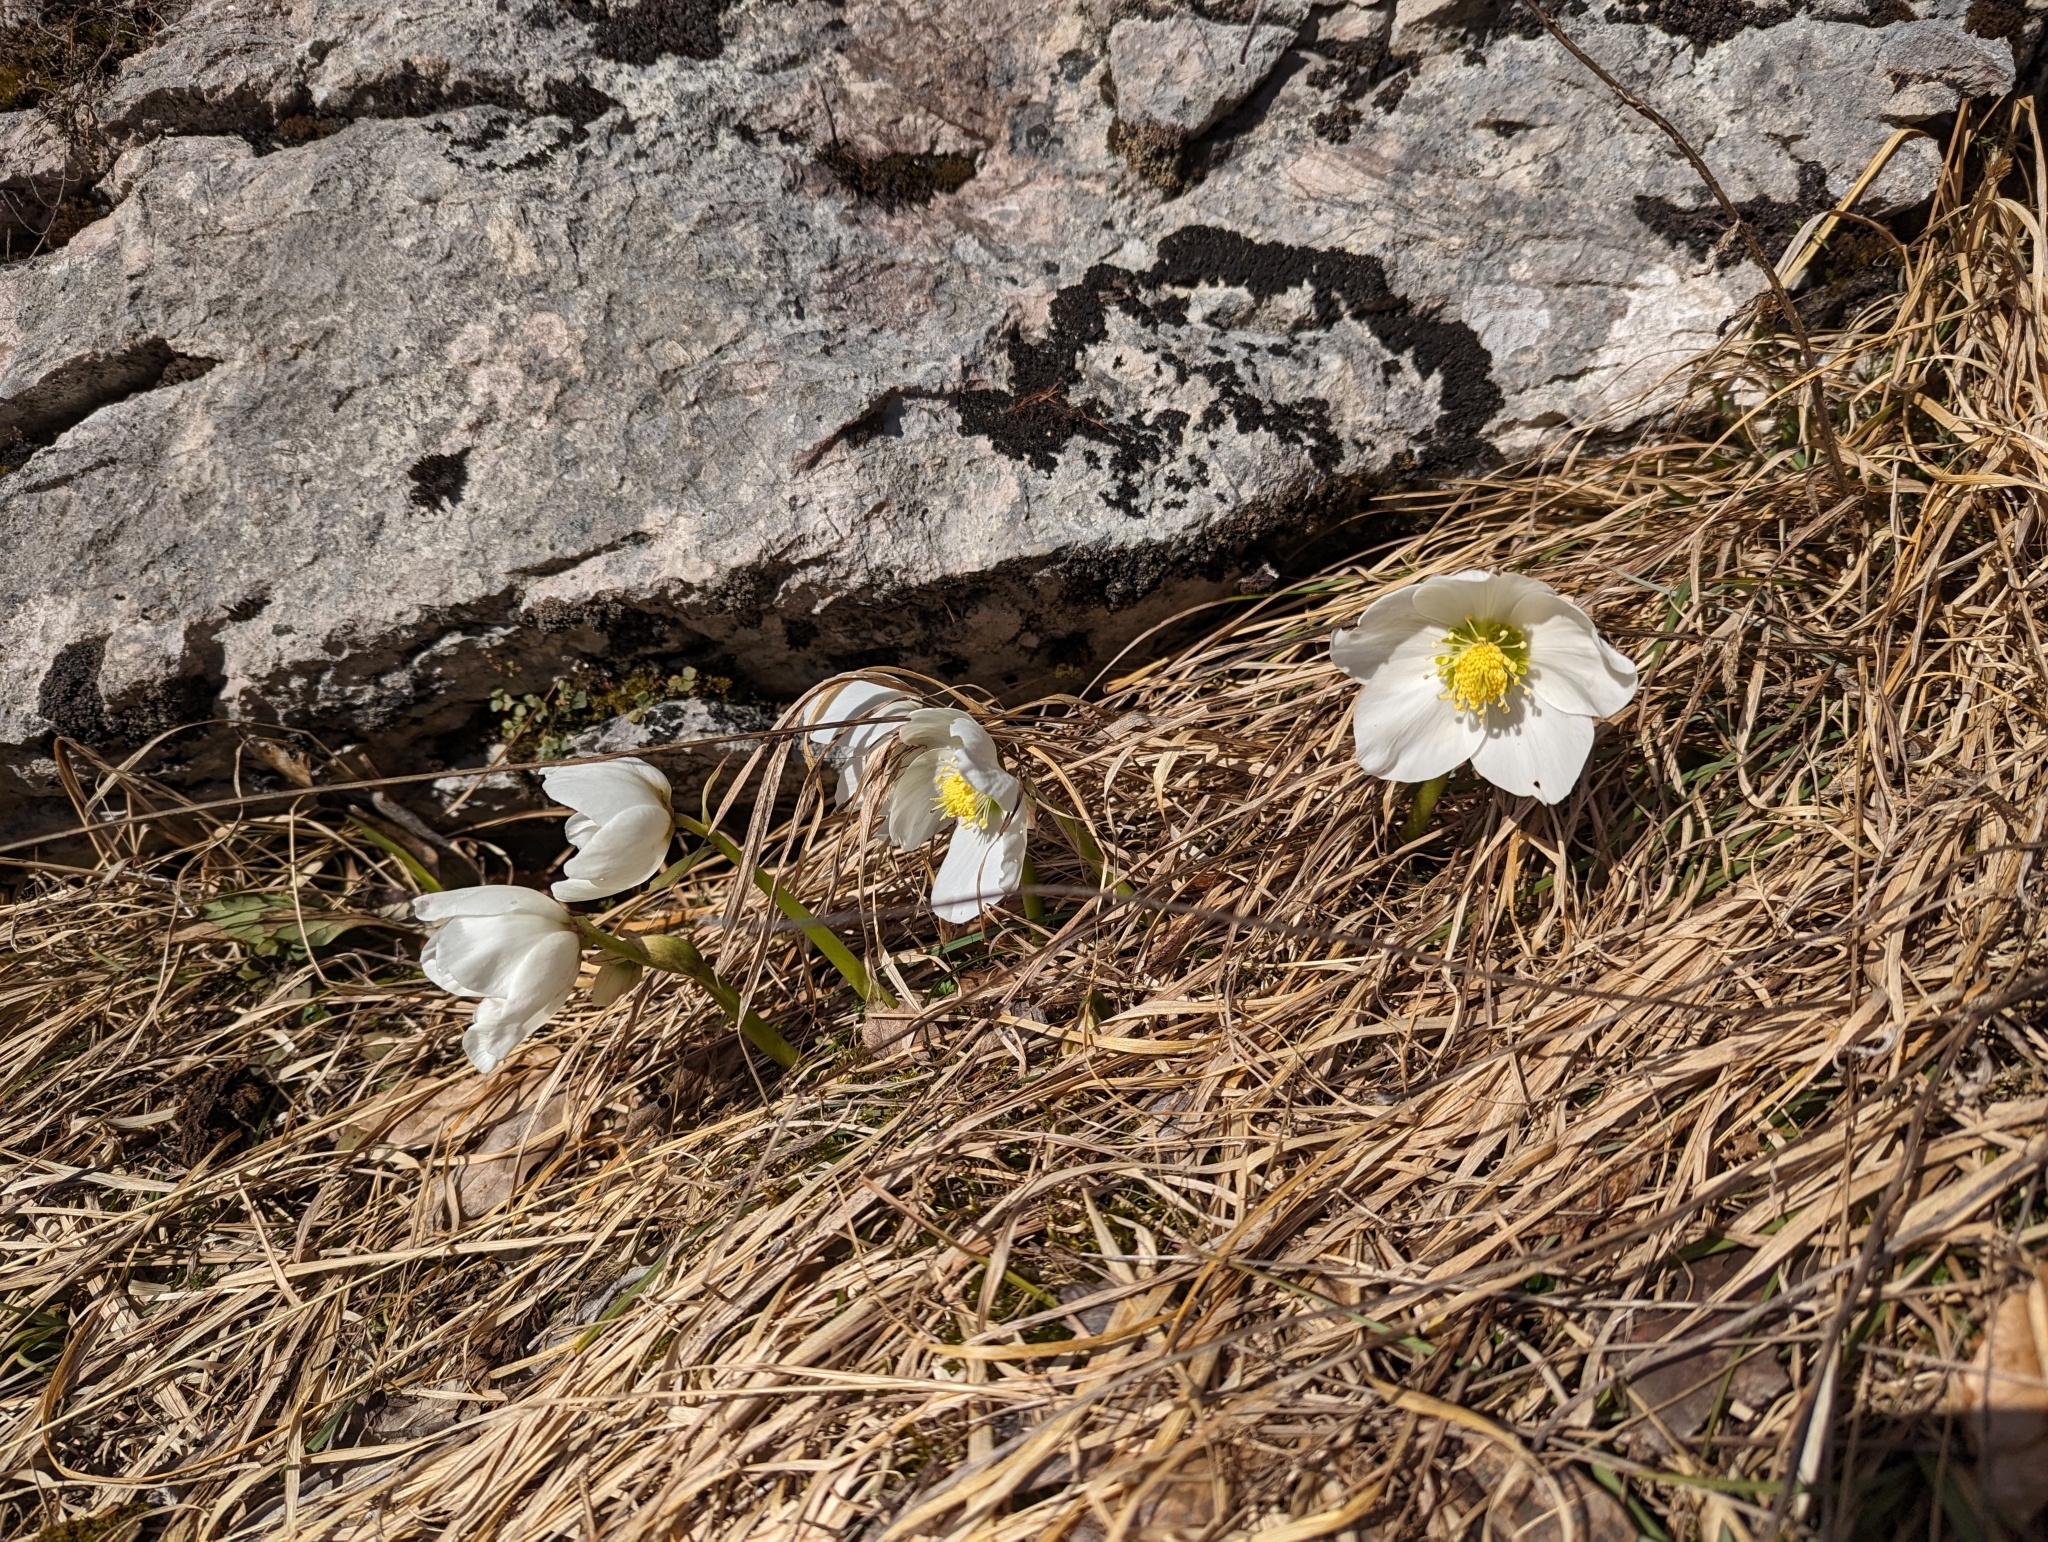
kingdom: Plantae
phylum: Tracheophyta
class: Magnoliopsida
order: Ranunculales
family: Ranunculaceae
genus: Helleborus
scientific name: Helleborus niger
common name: Black hellebore
